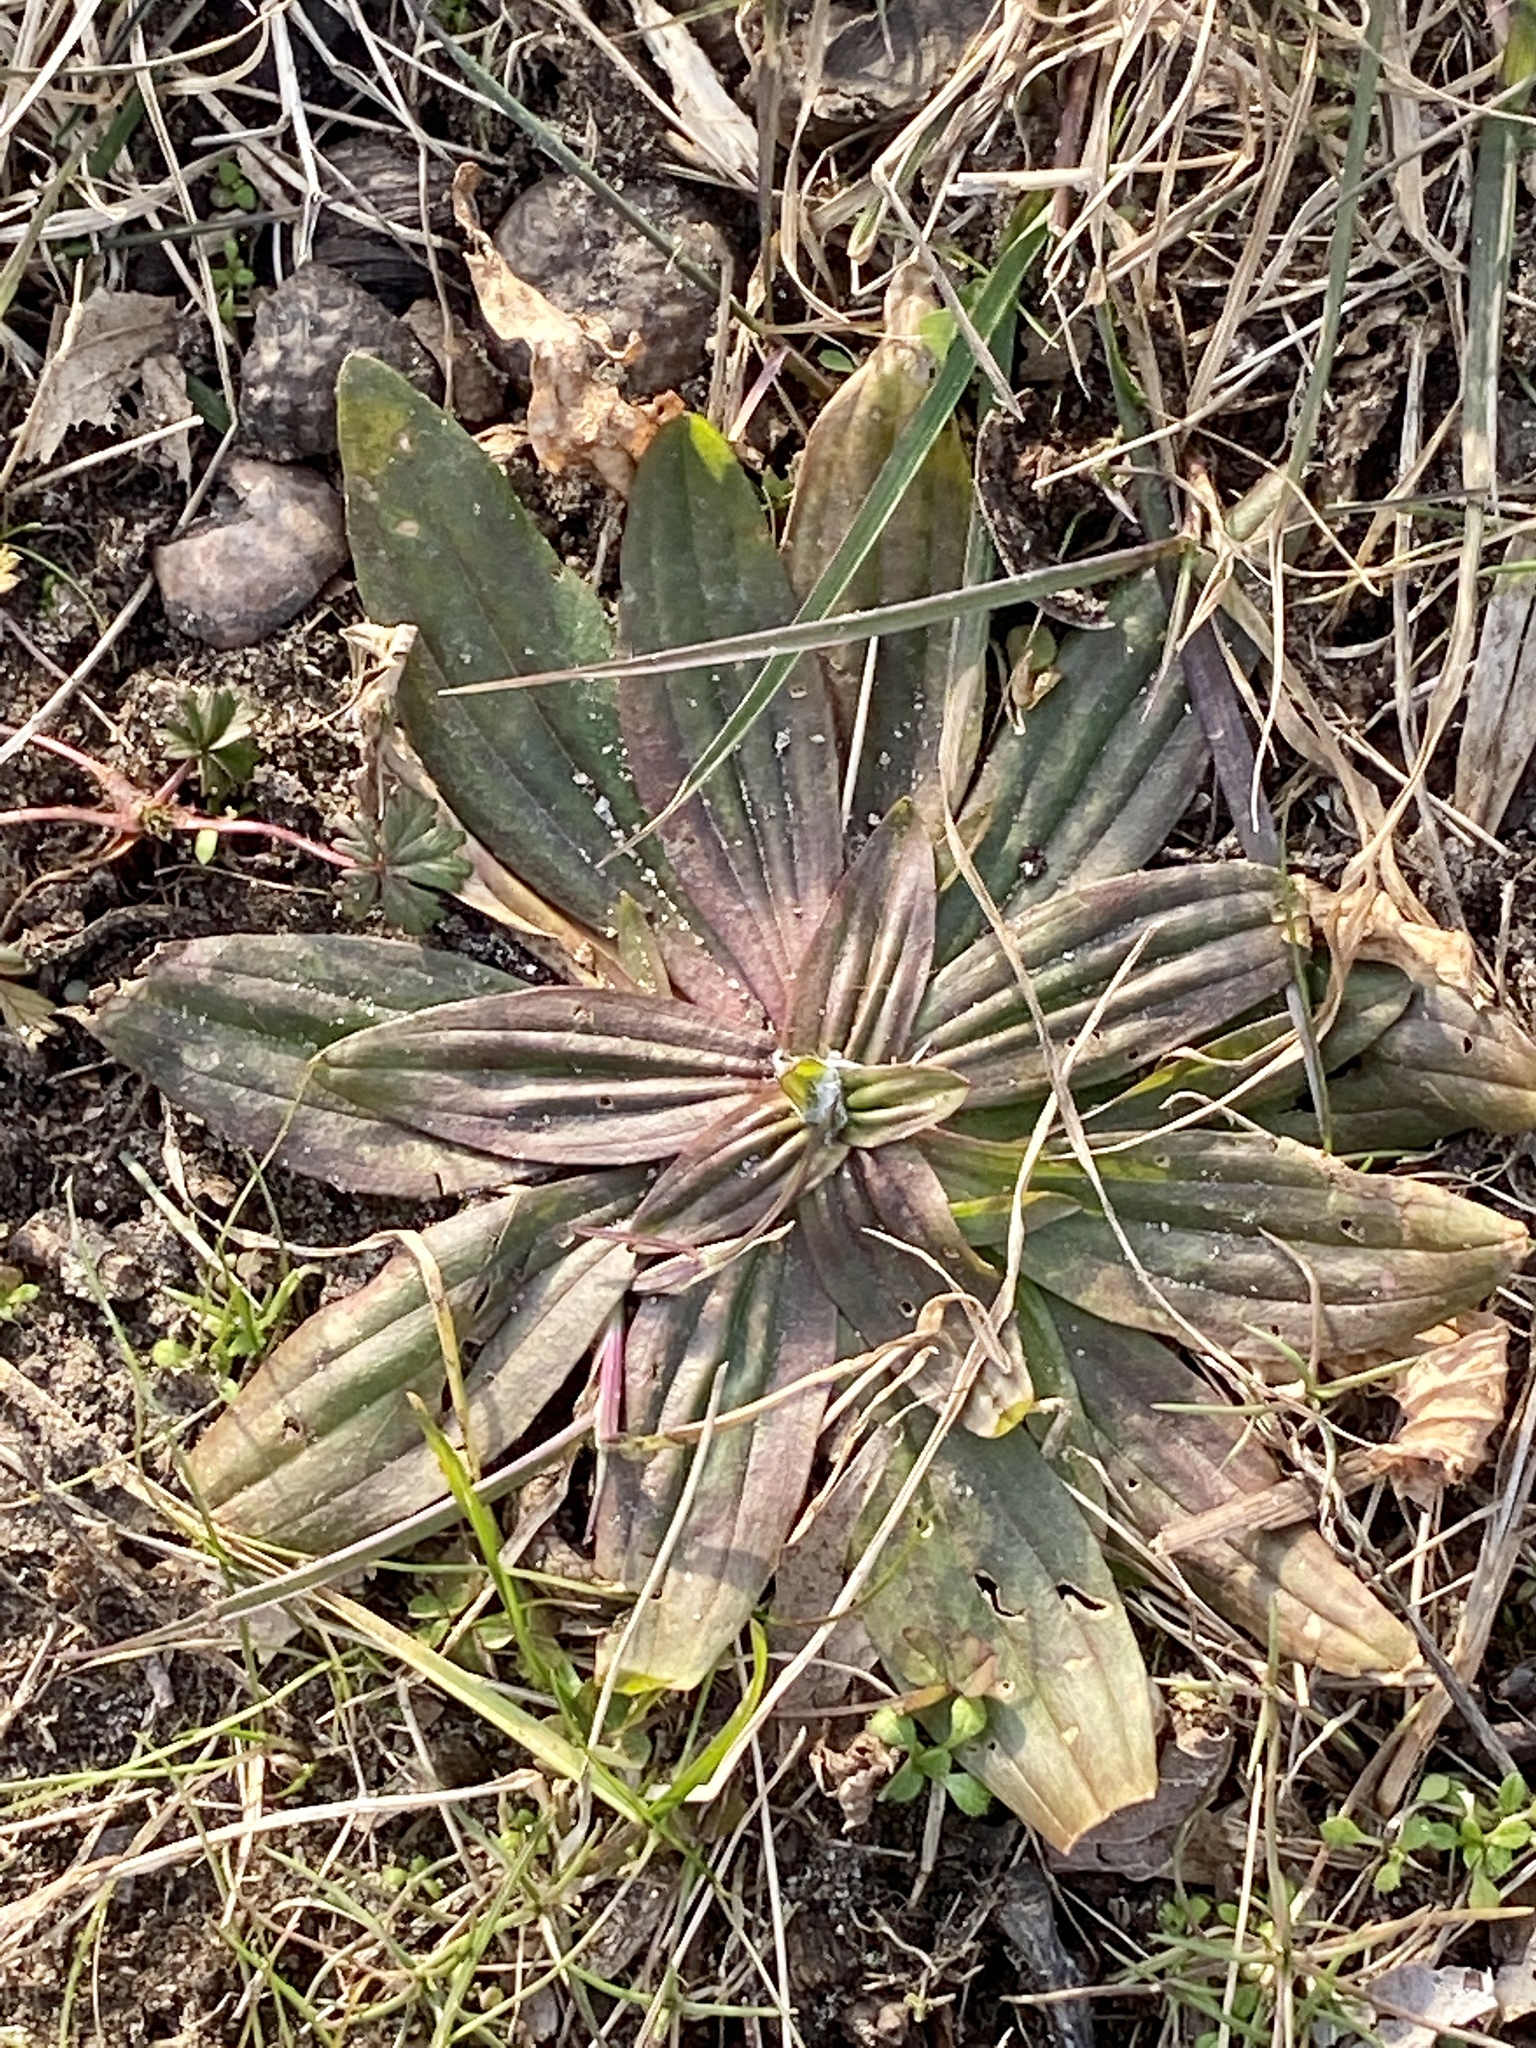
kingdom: Plantae
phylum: Tracheophyta
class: Magnoliopsida
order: Lamiales
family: Plantaginaceae
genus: Plantago
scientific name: Plantago lanceolata
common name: Ribwort plantain
